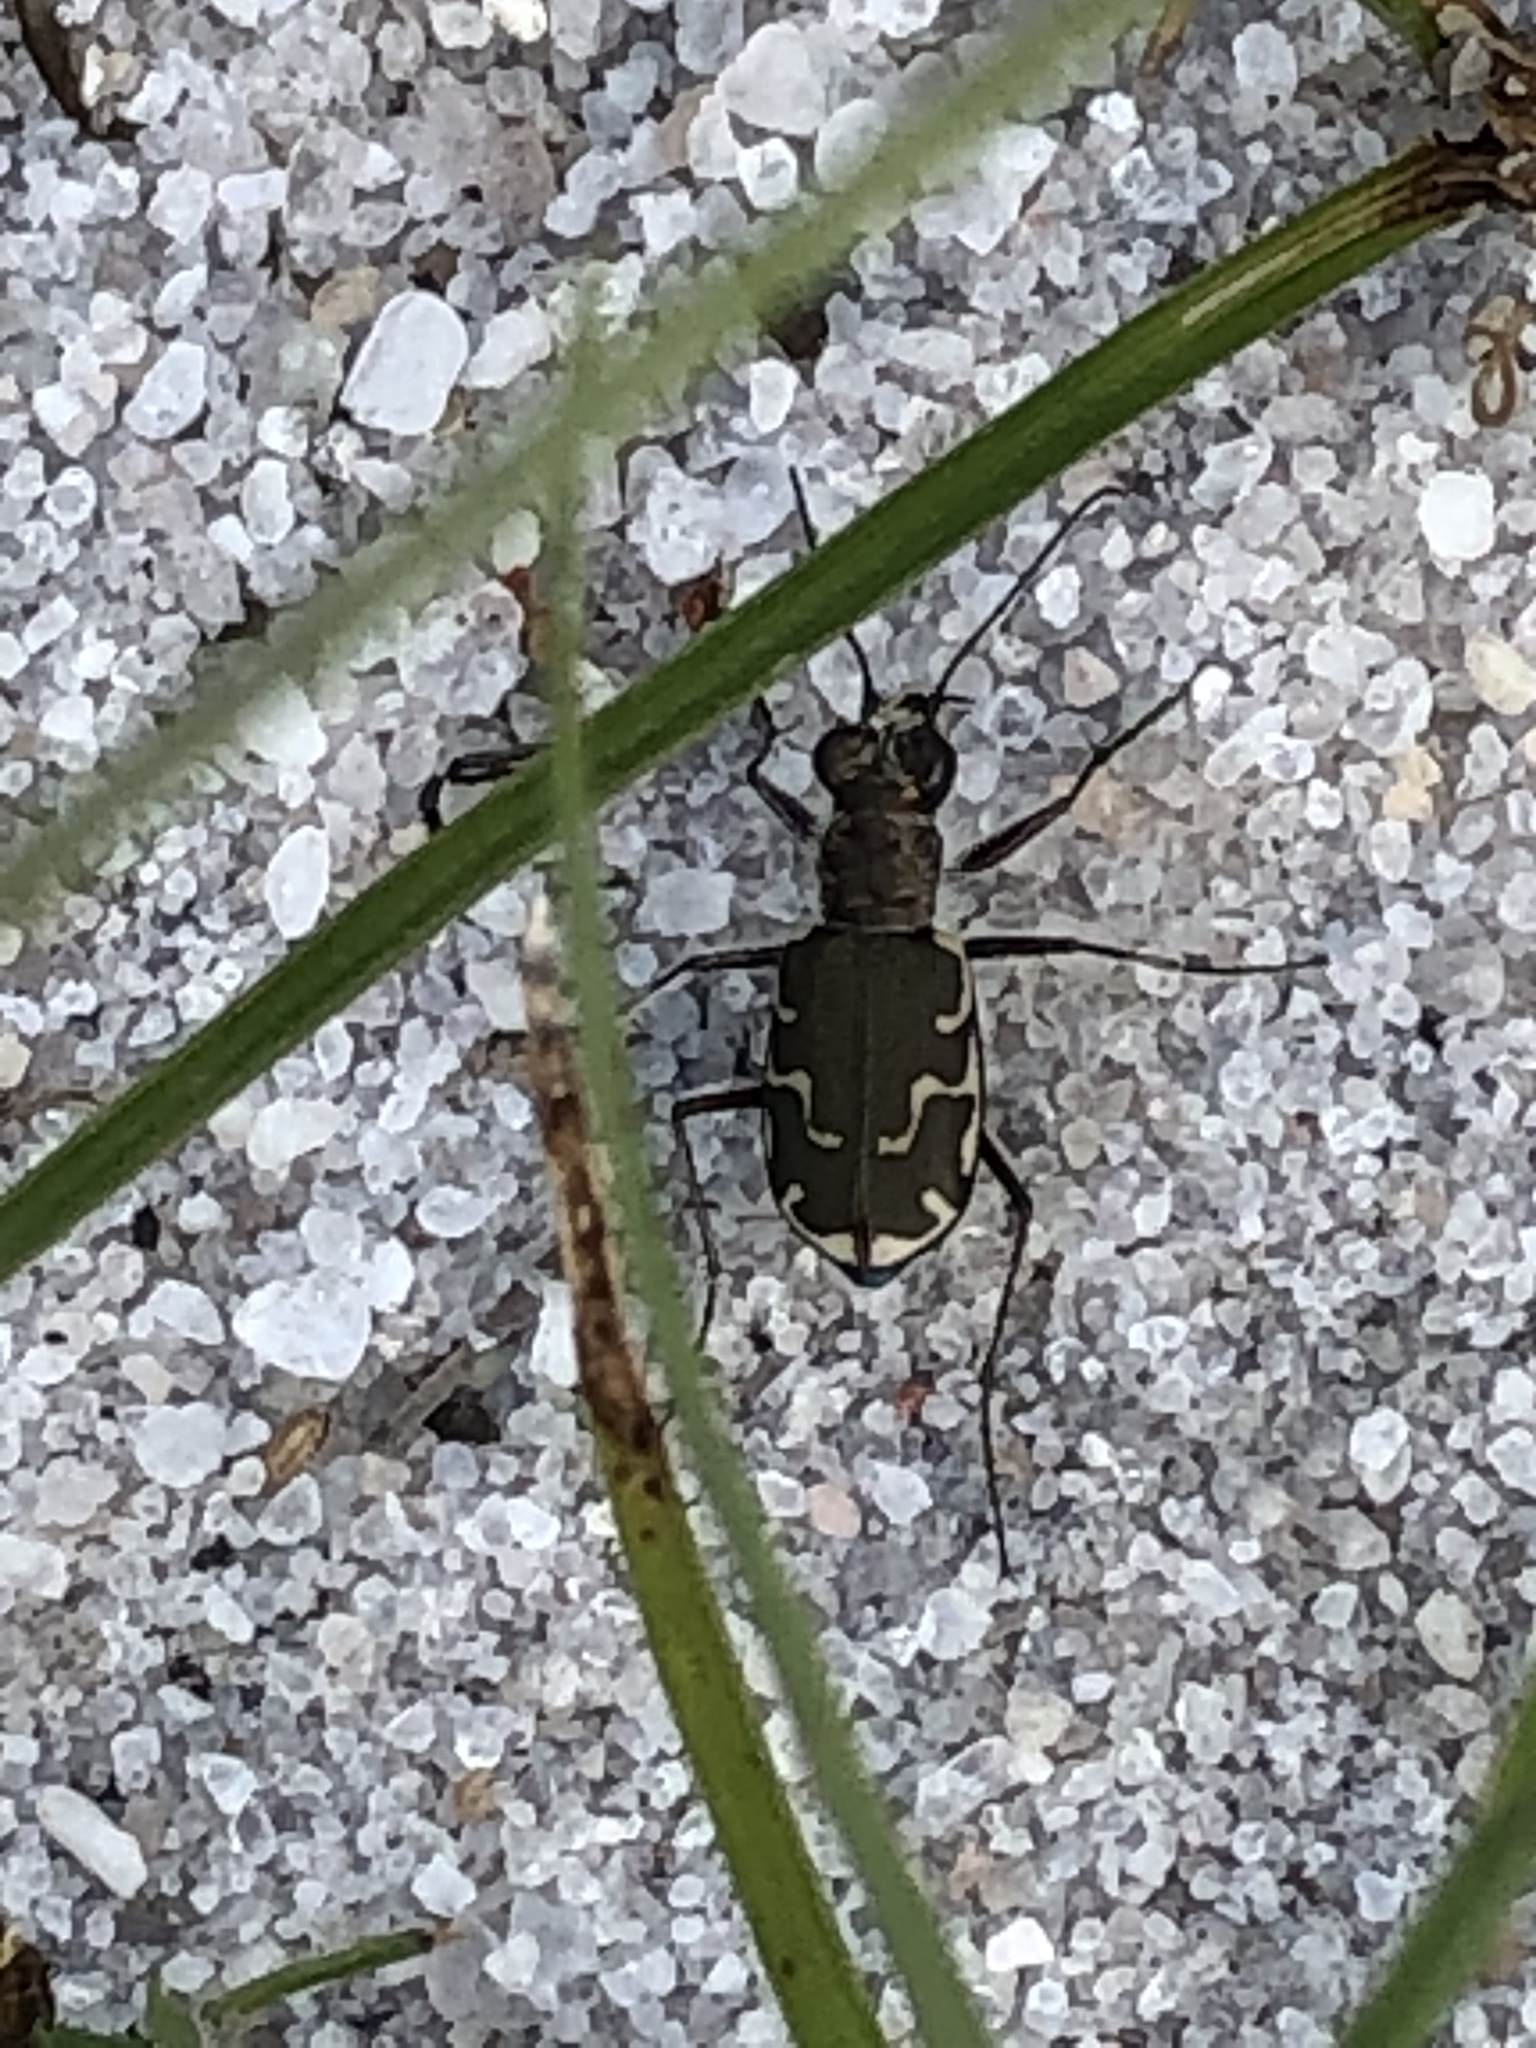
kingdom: Animalia
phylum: Arthropoda
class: Insecta
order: Coleoptera
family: Carabidae
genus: Cicindela
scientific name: Cicindela repanda
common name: Bronzed tiger beetle
